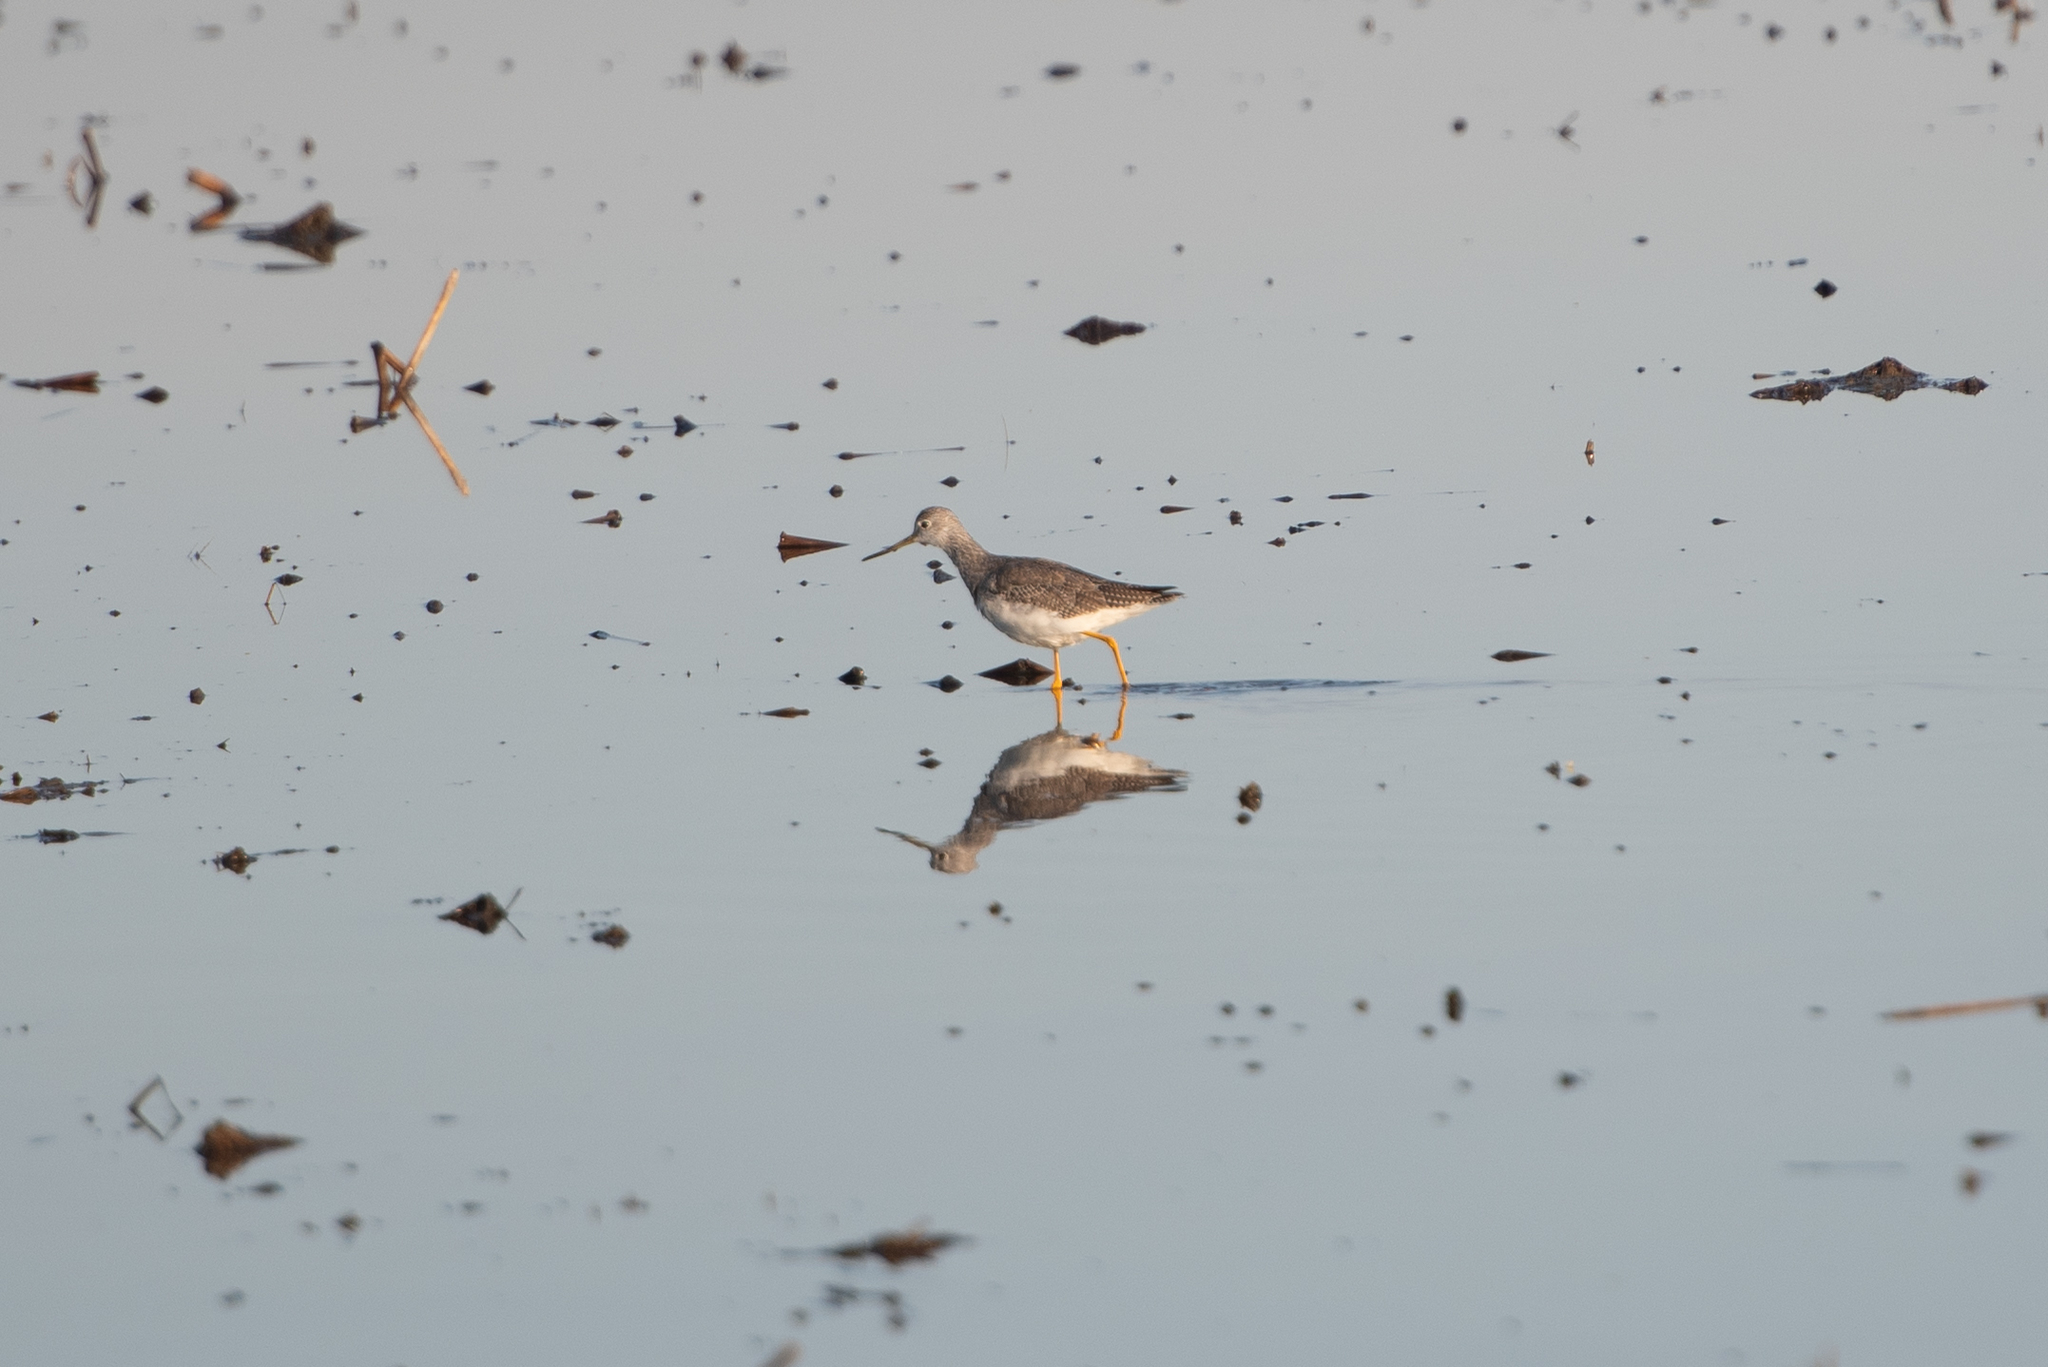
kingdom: Animalia
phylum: Chordata
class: Aves
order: Charadriiformes
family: Scolopacidae
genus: Tringa
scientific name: Tringa melanoleuca
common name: Greater yellowlegs
